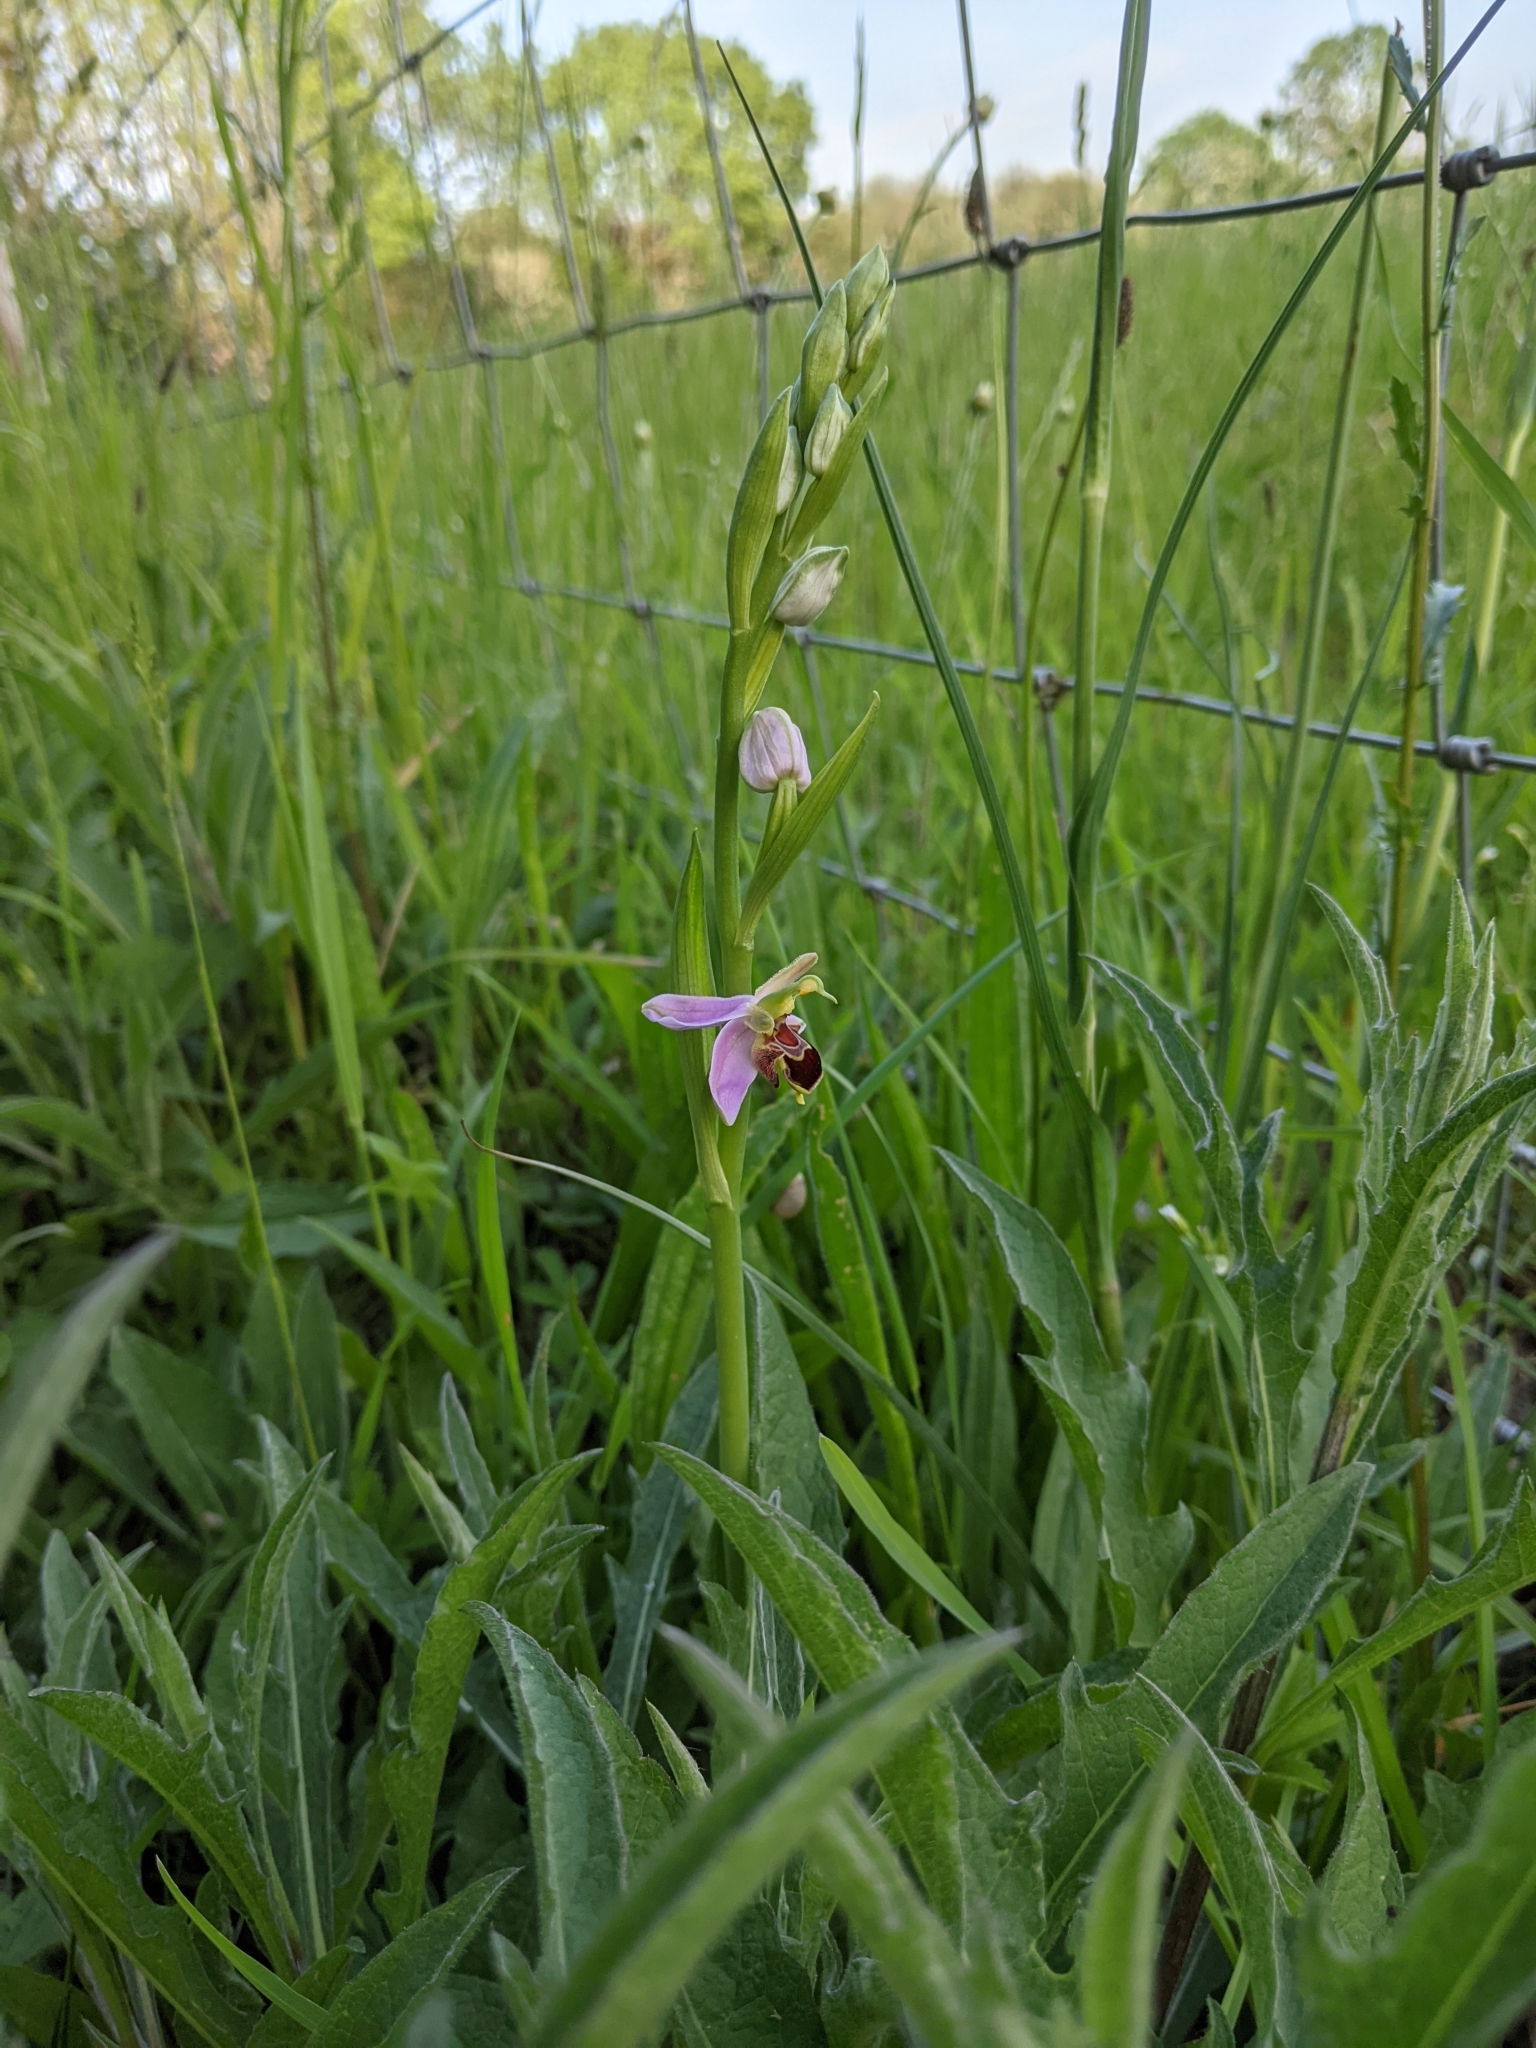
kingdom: Plantae
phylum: Tracheophyta
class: Liliopsida
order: Asparagales
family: Orchidaceae
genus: Ophrys
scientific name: Ophrys apifera
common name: Bee orchid
